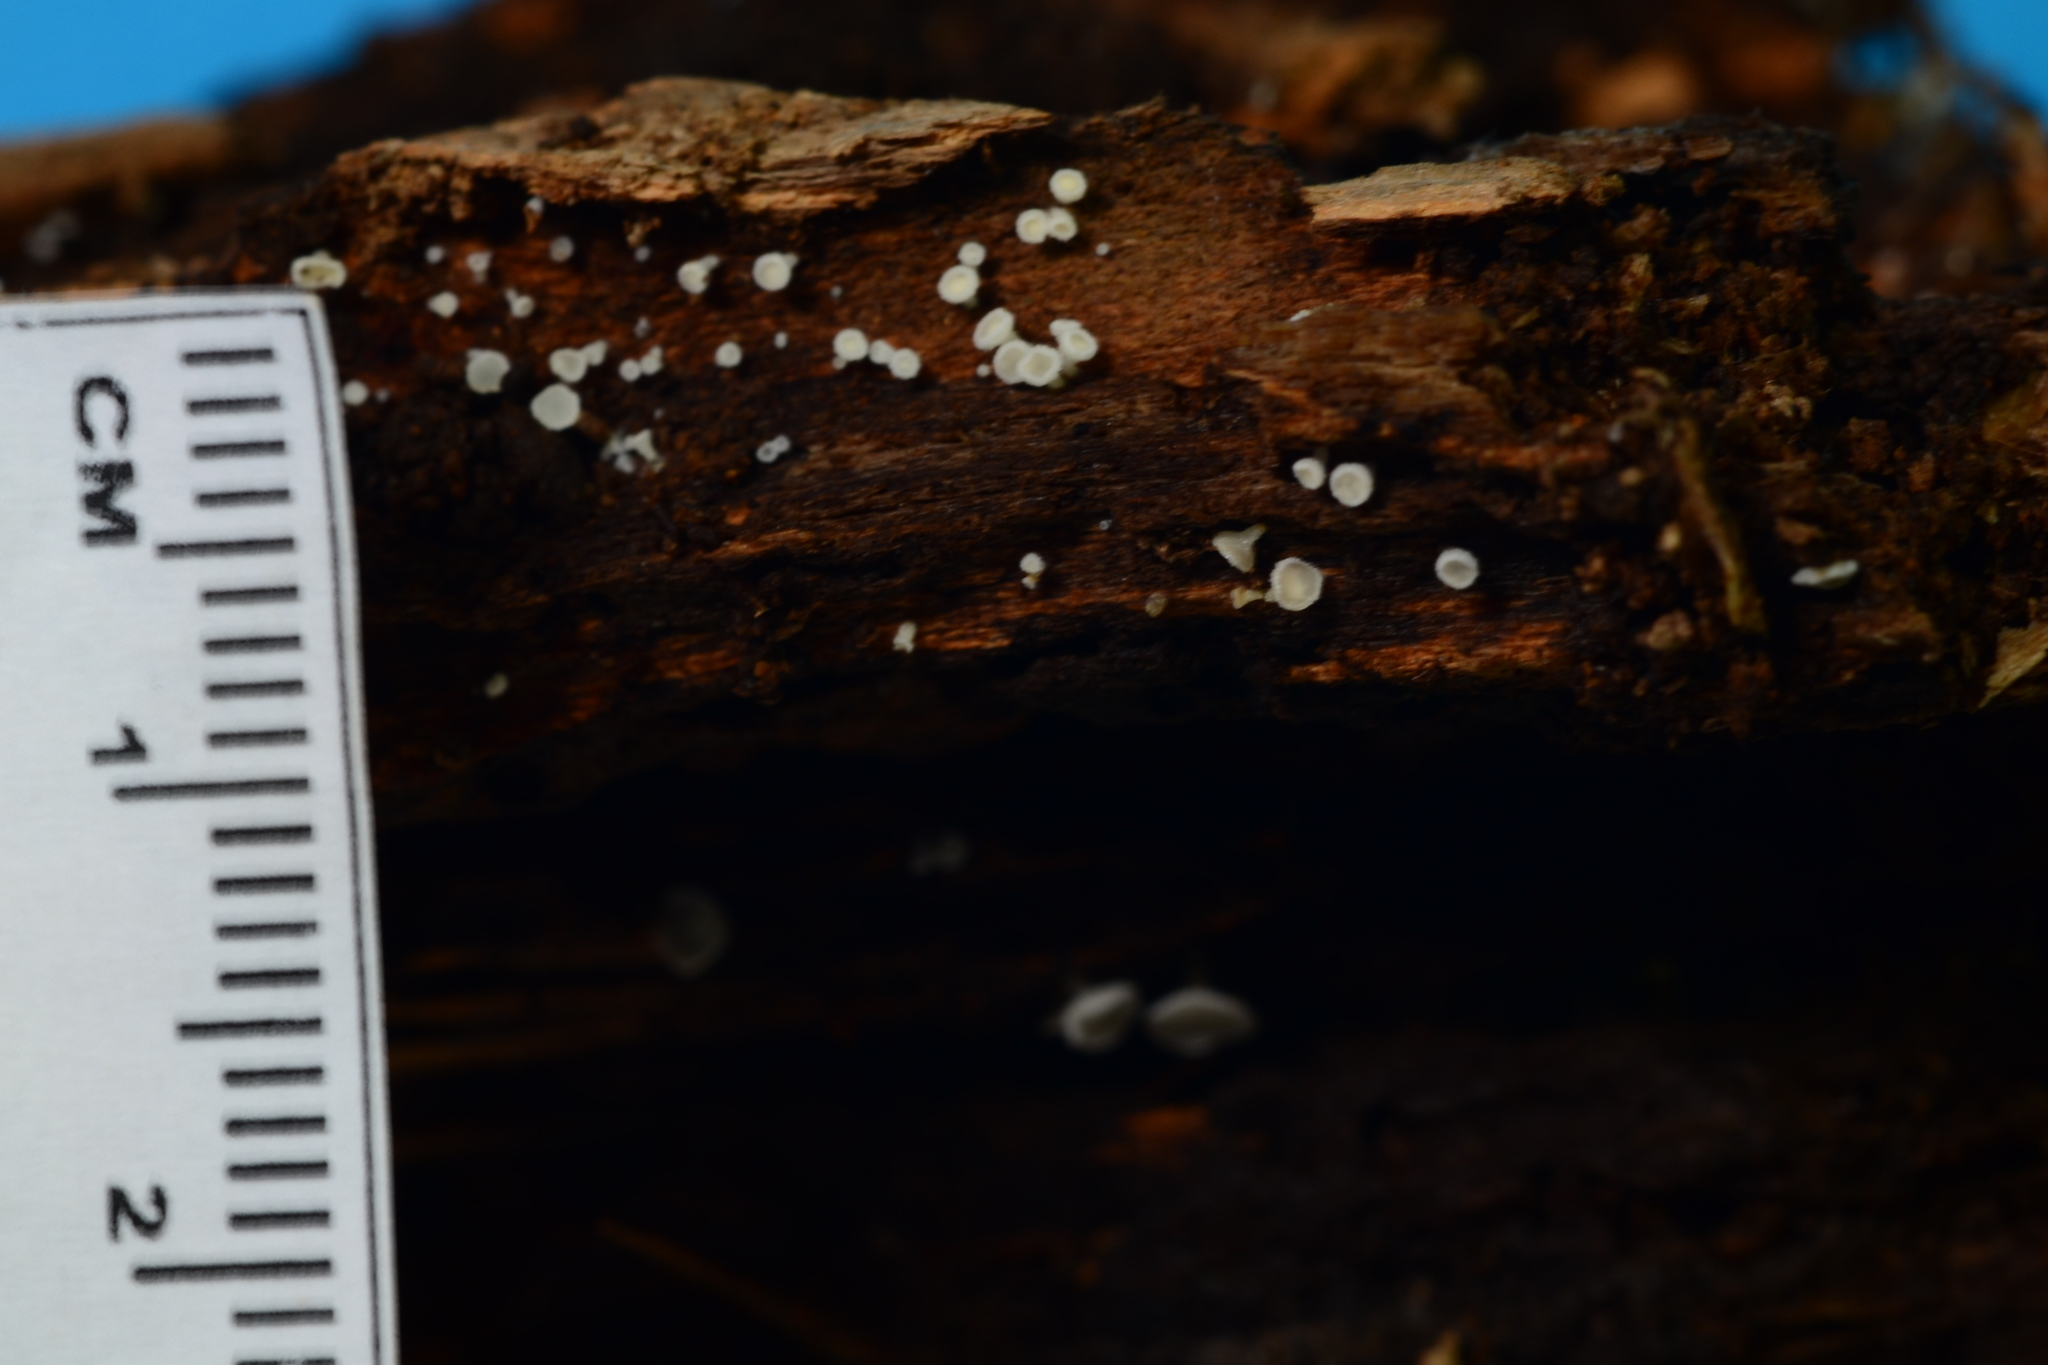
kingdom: Fungi
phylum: Ascomycota
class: Leotiomycetes
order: Helotiales
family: Lachnaceae
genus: Dasyscyphella
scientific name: Dasyscyphella nivea
